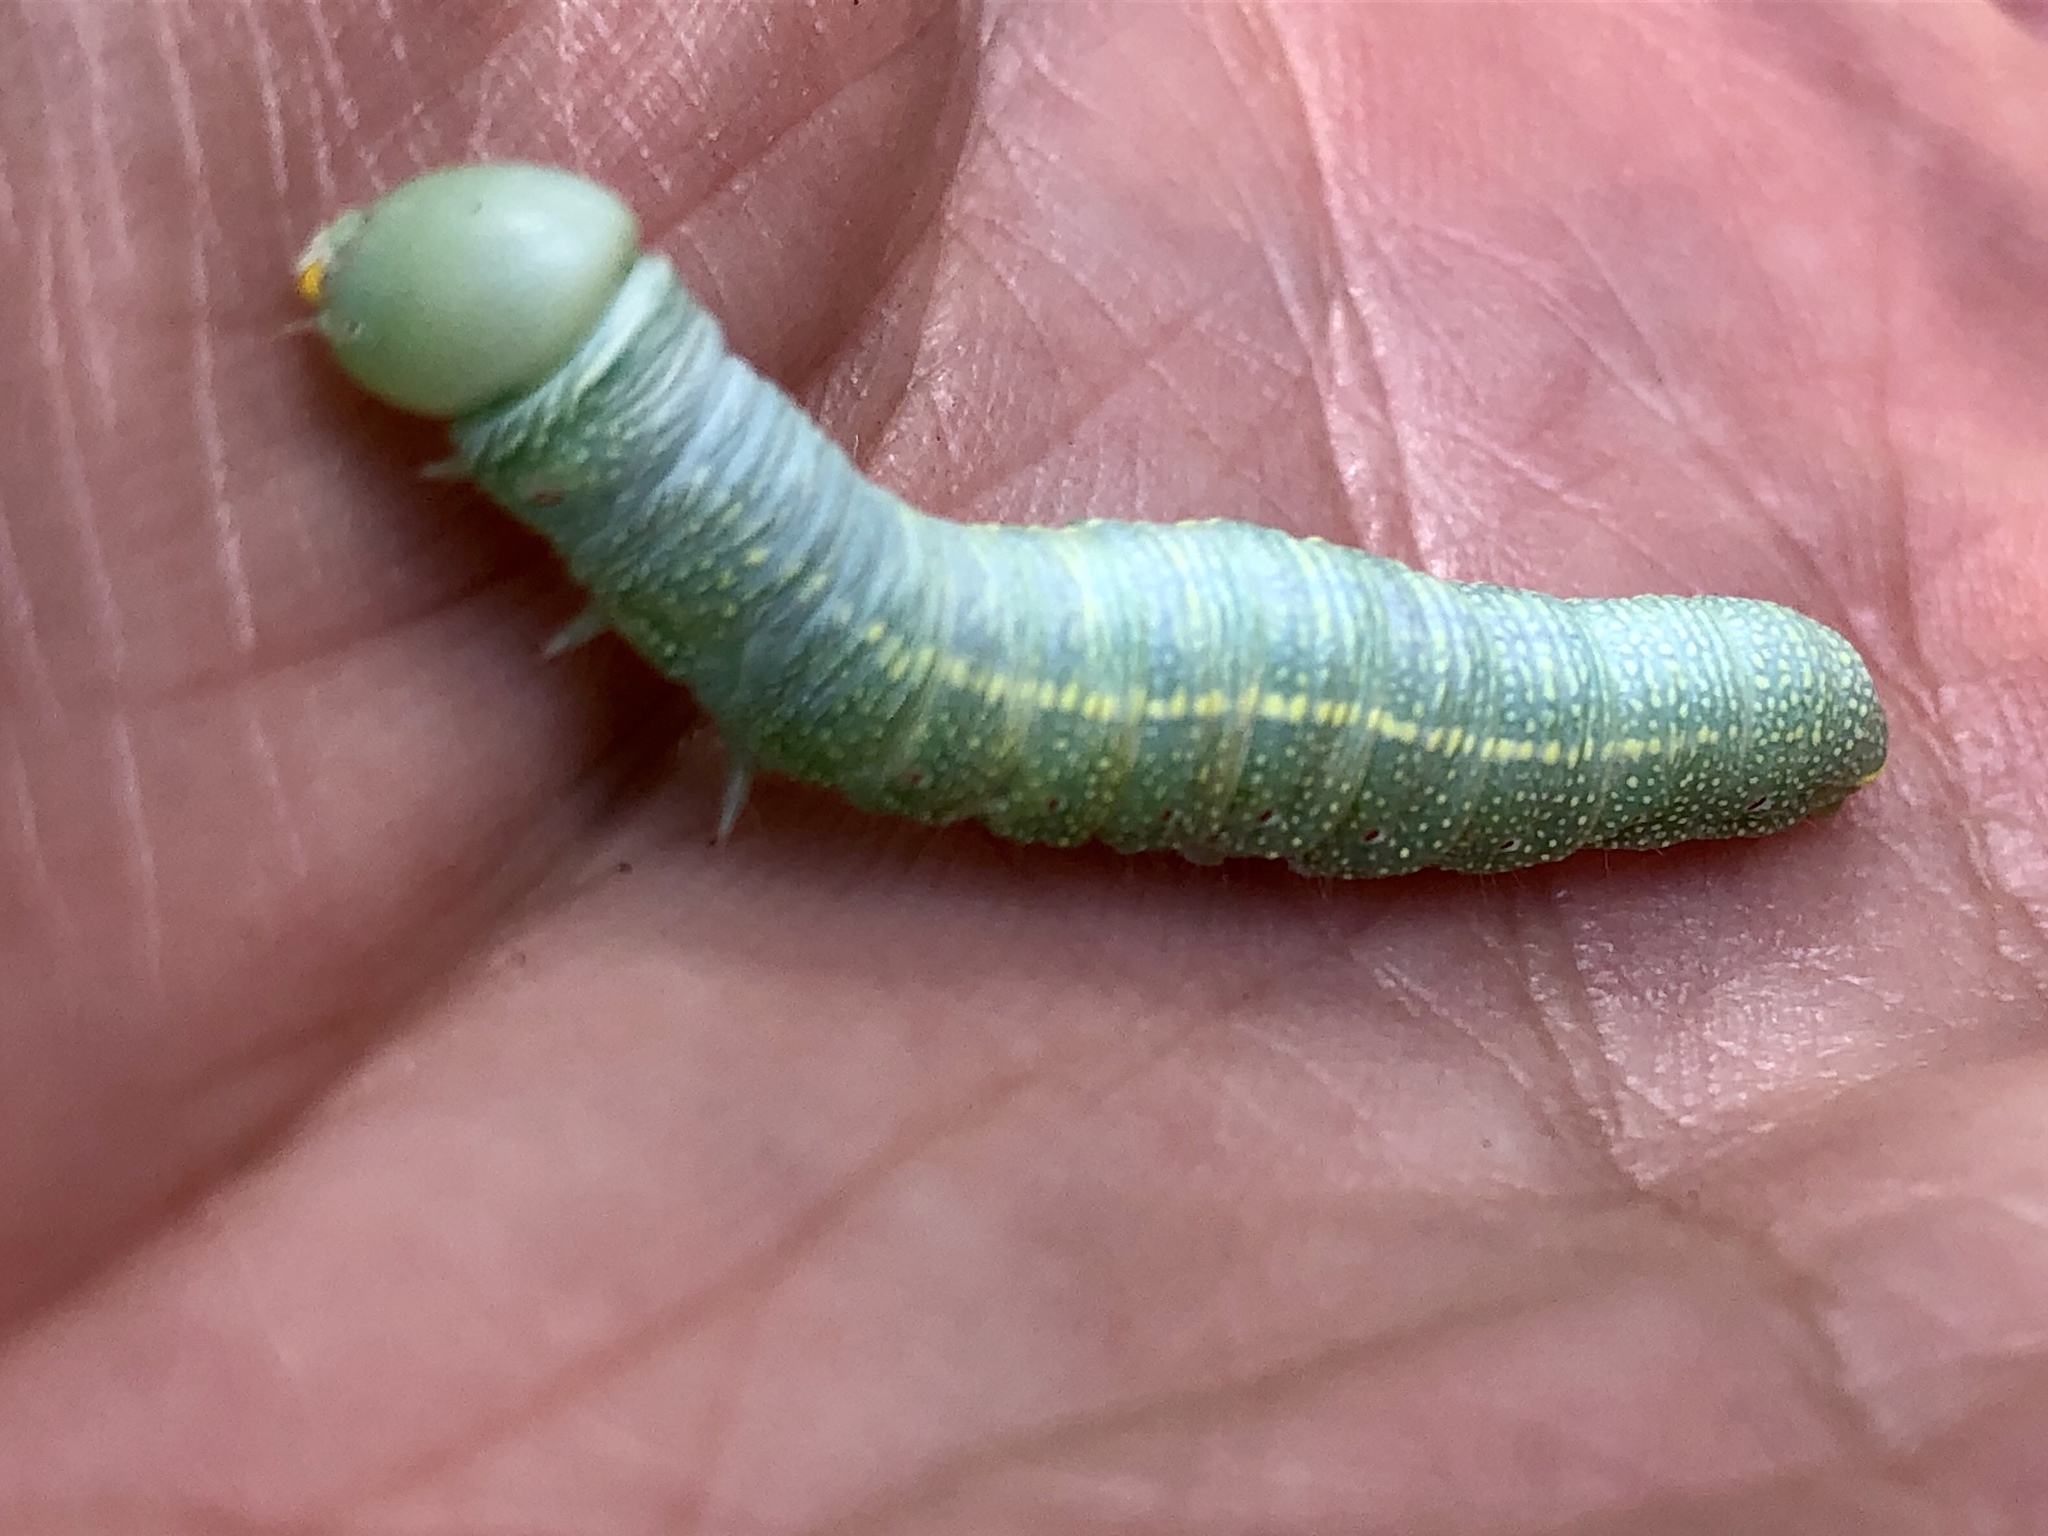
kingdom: Animalia
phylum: Arthropoda
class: Insecta
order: Lepidoptera
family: Notodontidae
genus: Nadata
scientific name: Nadata gibbosa
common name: White-dotted prominent
